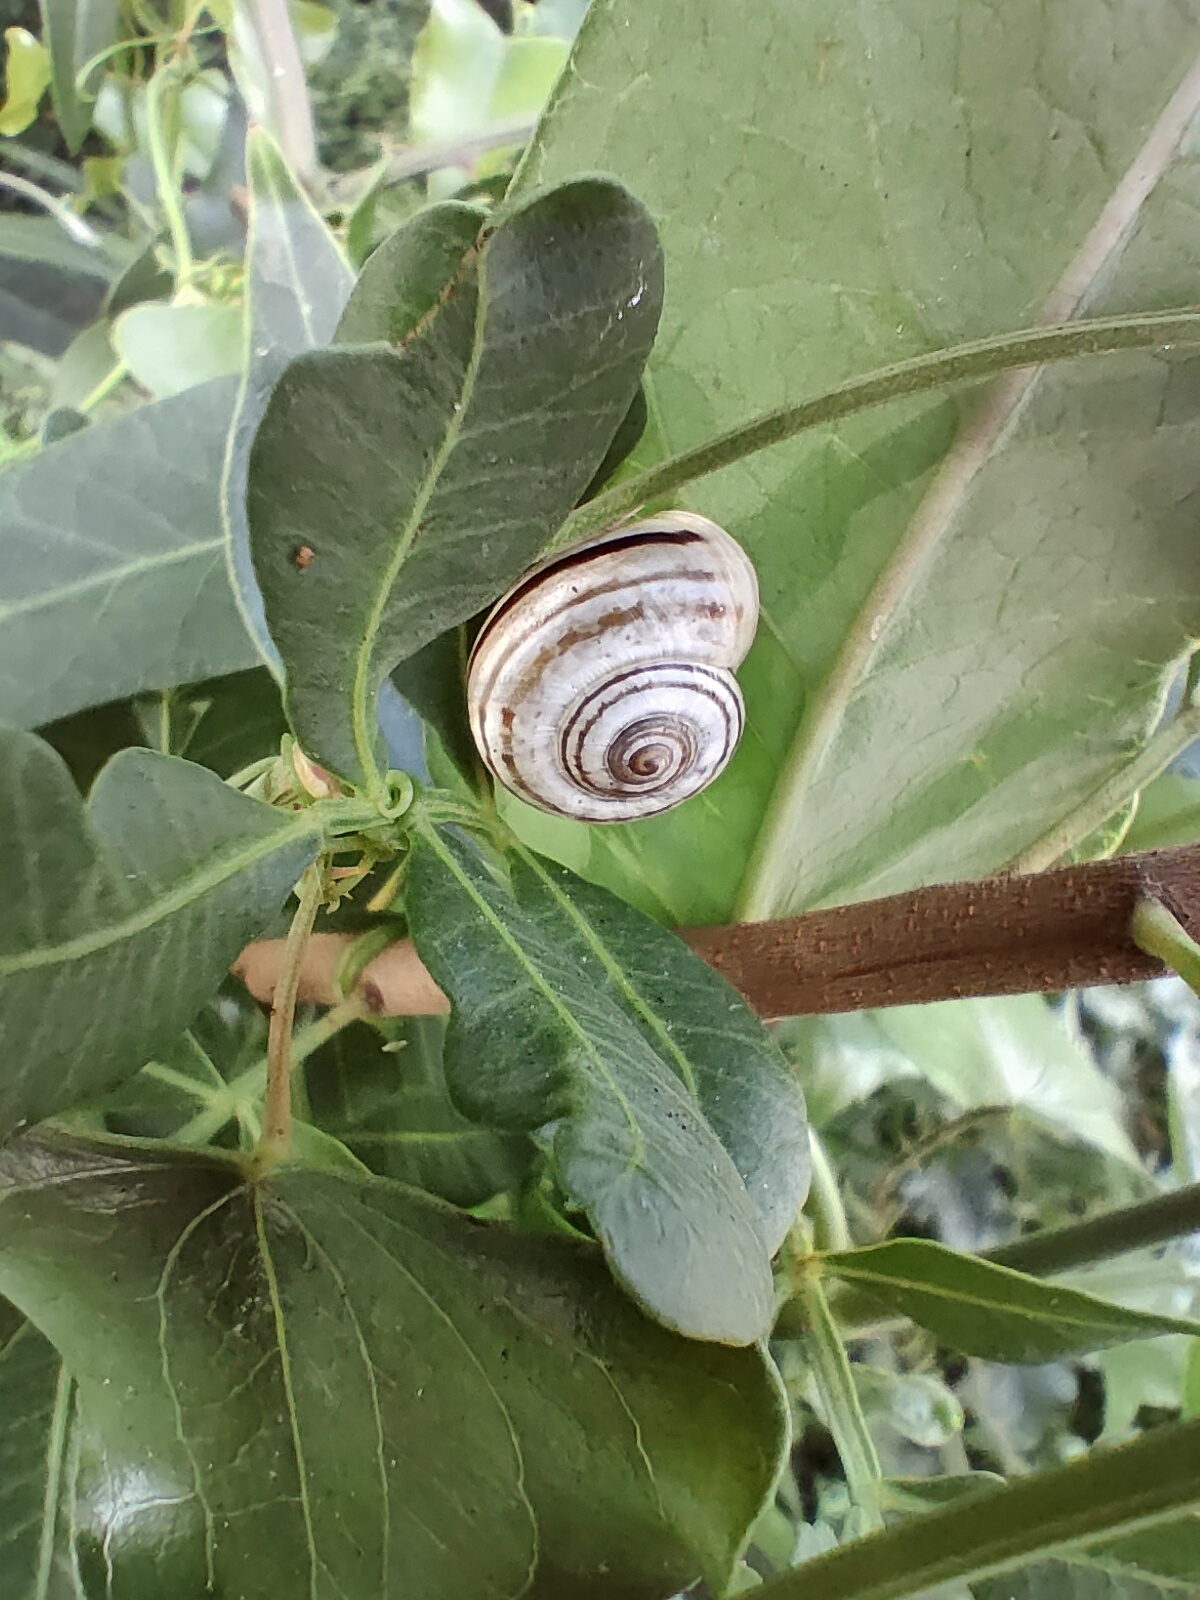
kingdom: Animalia
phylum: Mollusca
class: Gastropoda
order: Stylommatophora
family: Helicidae
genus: Pseudotachea
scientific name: Pseudotachea splendida
